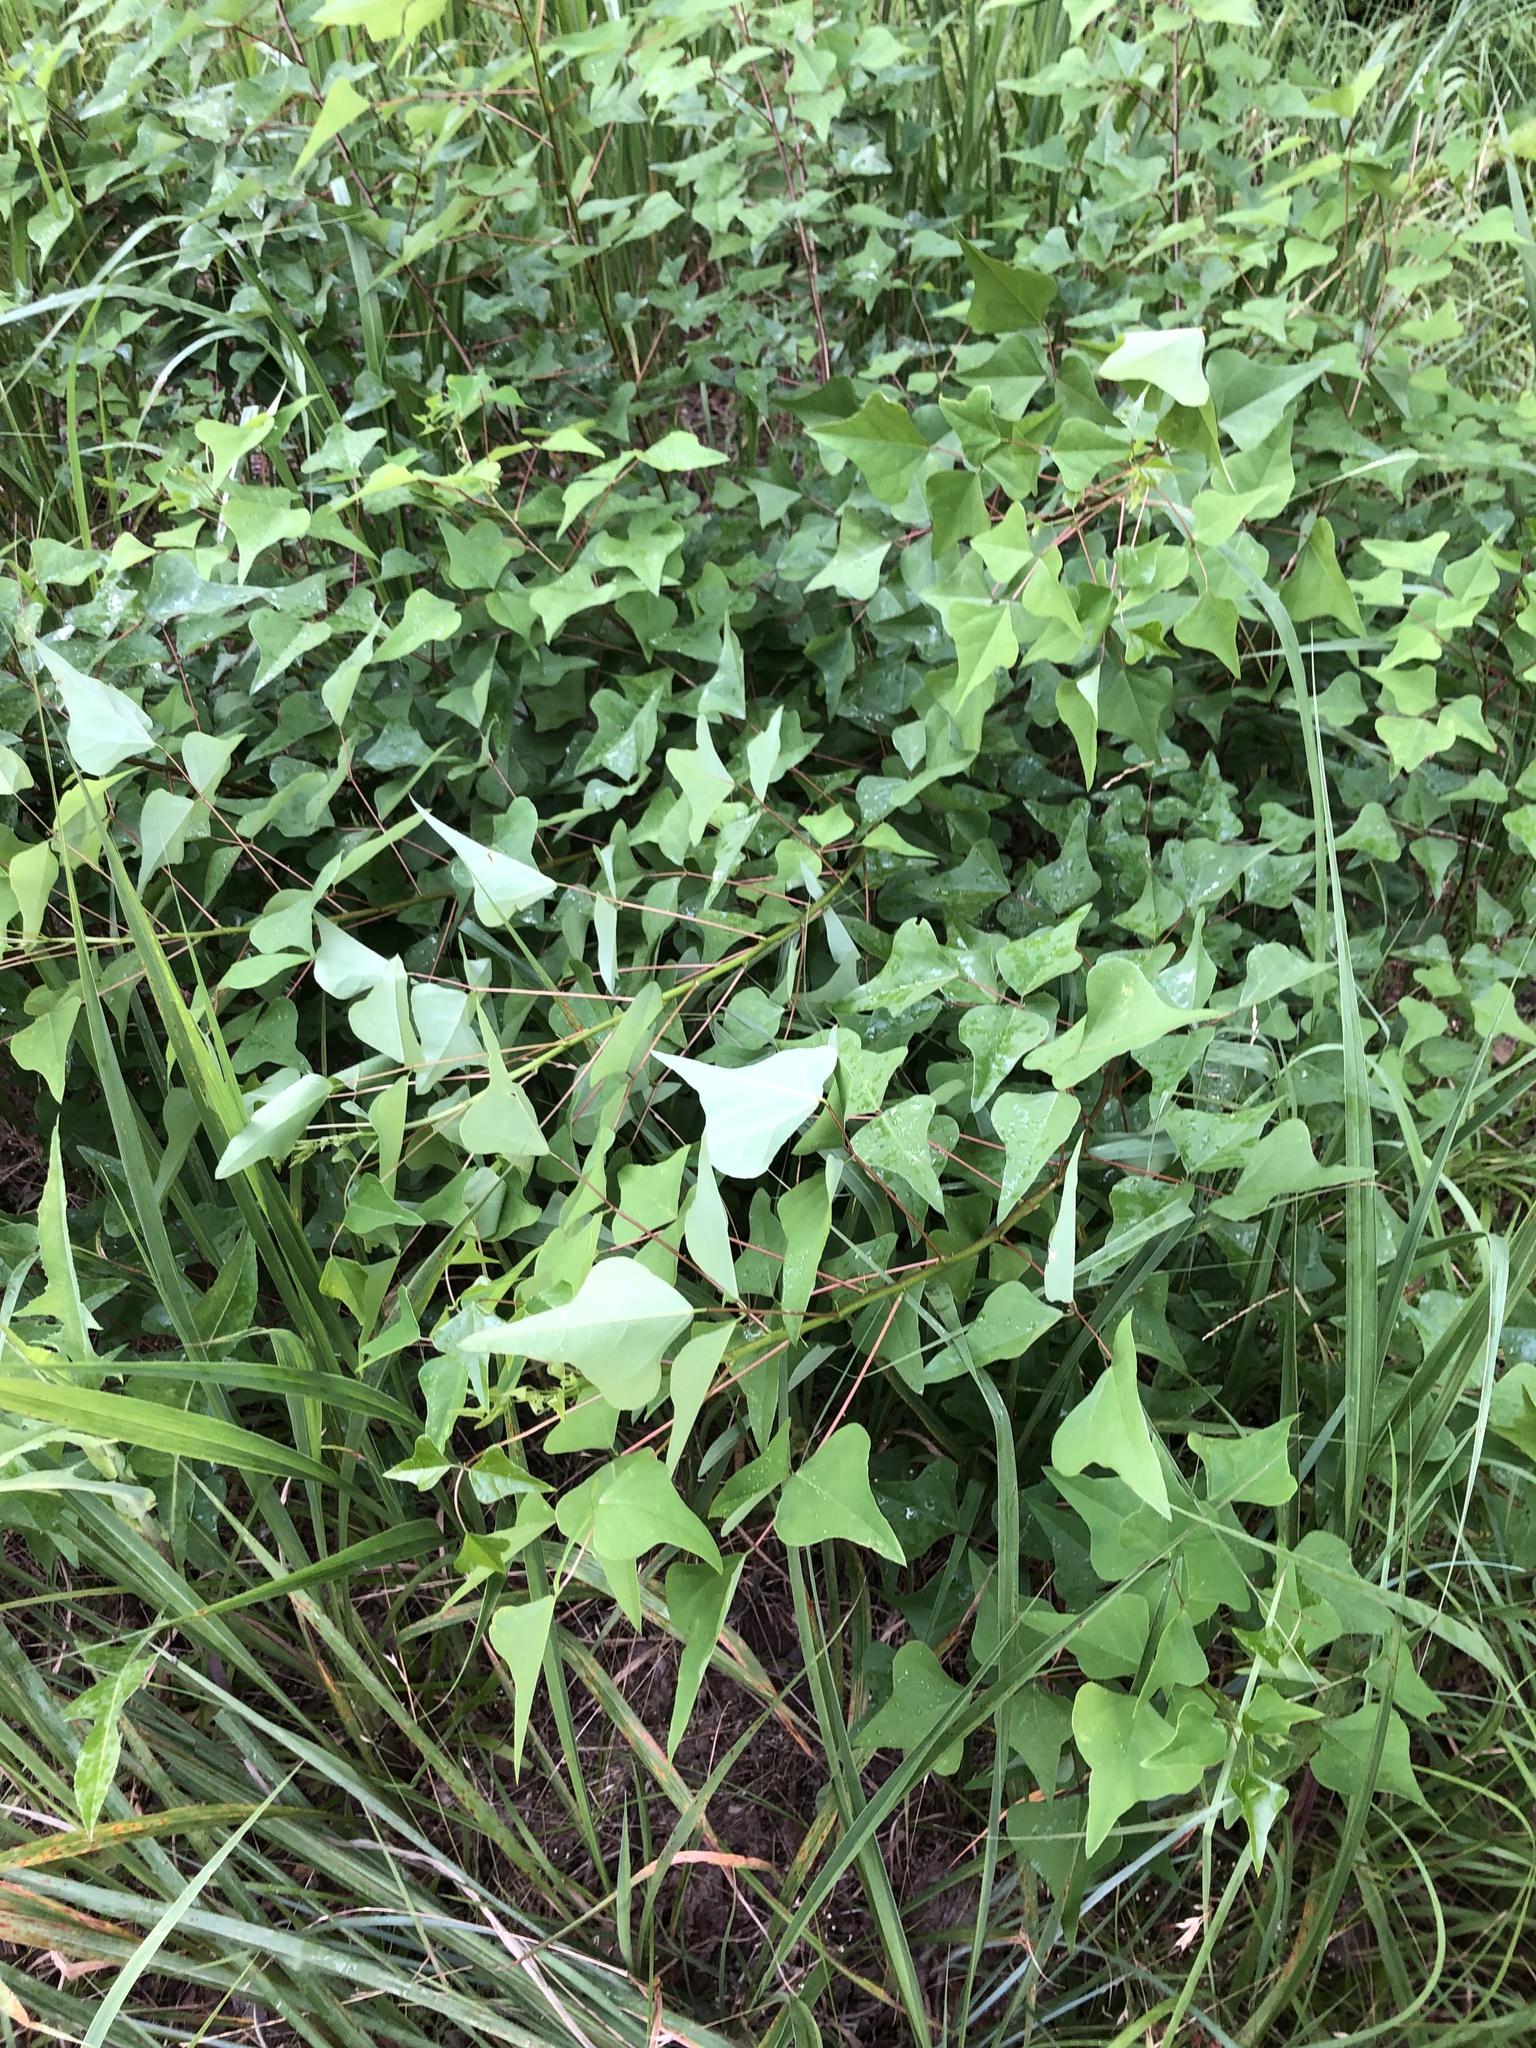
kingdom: Plantae
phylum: Tracheophyta
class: Magnoliopsida
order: Fabales
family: Fabaceae
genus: Erythrina
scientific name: Erythrina herbacea
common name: Coral-bean
